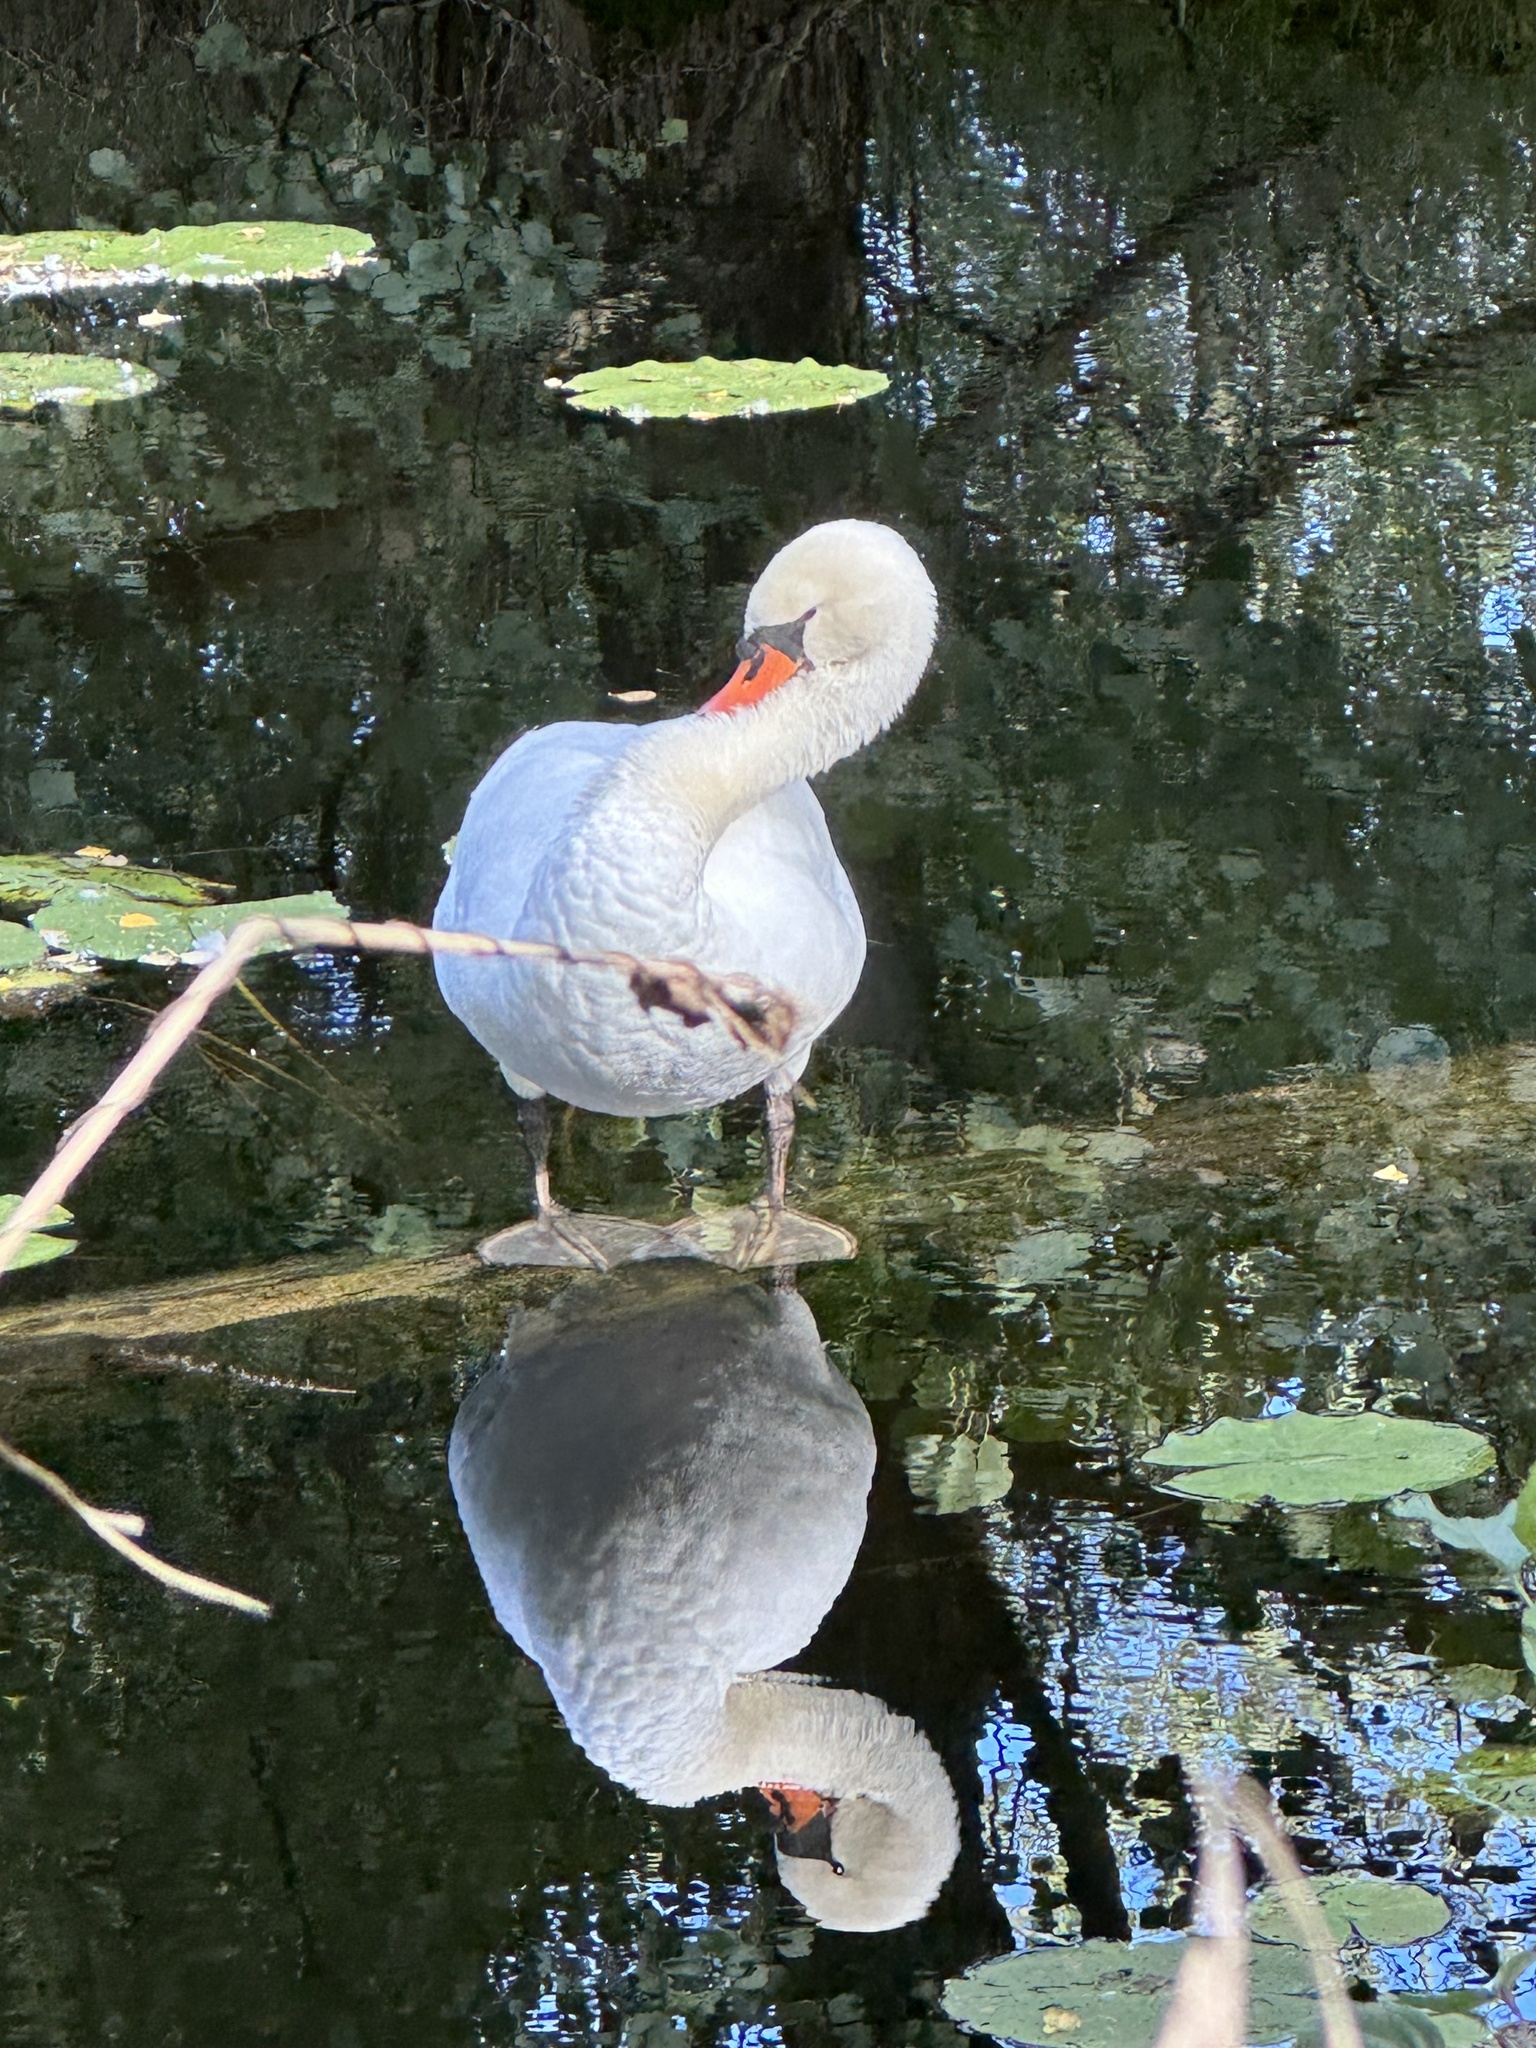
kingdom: Animalia
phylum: Chordata
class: Aves
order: Anseriformes
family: Anatidae
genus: Cygnus
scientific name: Cygnus olor
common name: Mute swan
